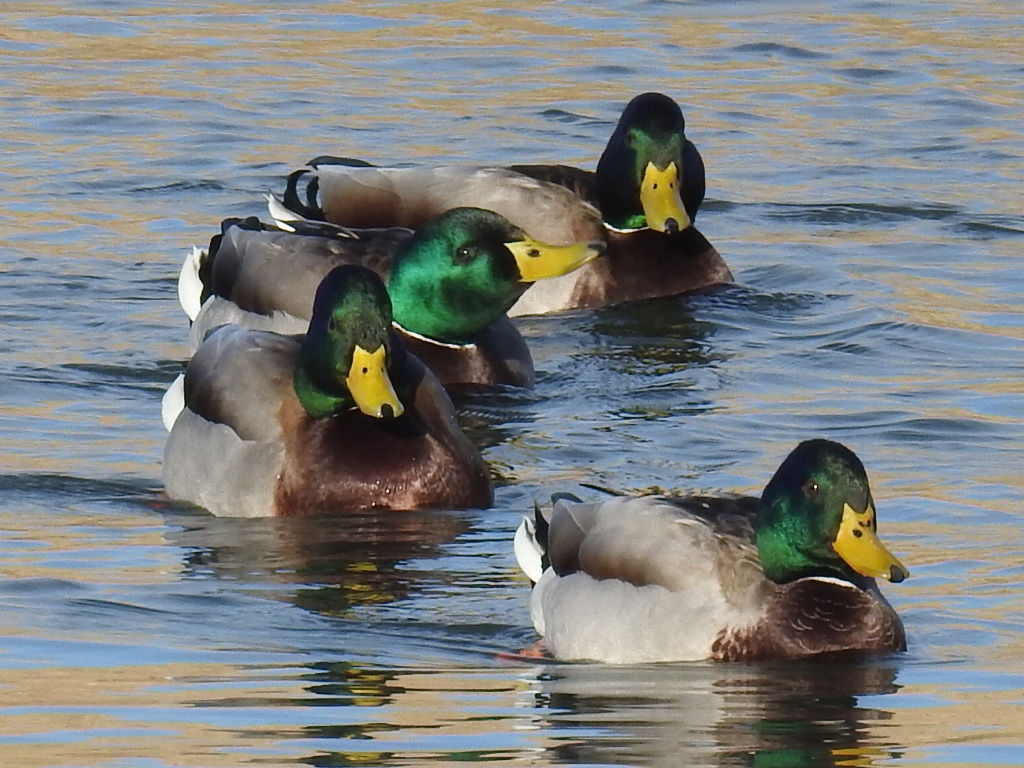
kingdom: Animalia
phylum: Chordata
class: Aves
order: Anseriformes
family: Anatidae
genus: Anas
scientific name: Anas platyrhynchos
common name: Mallard
